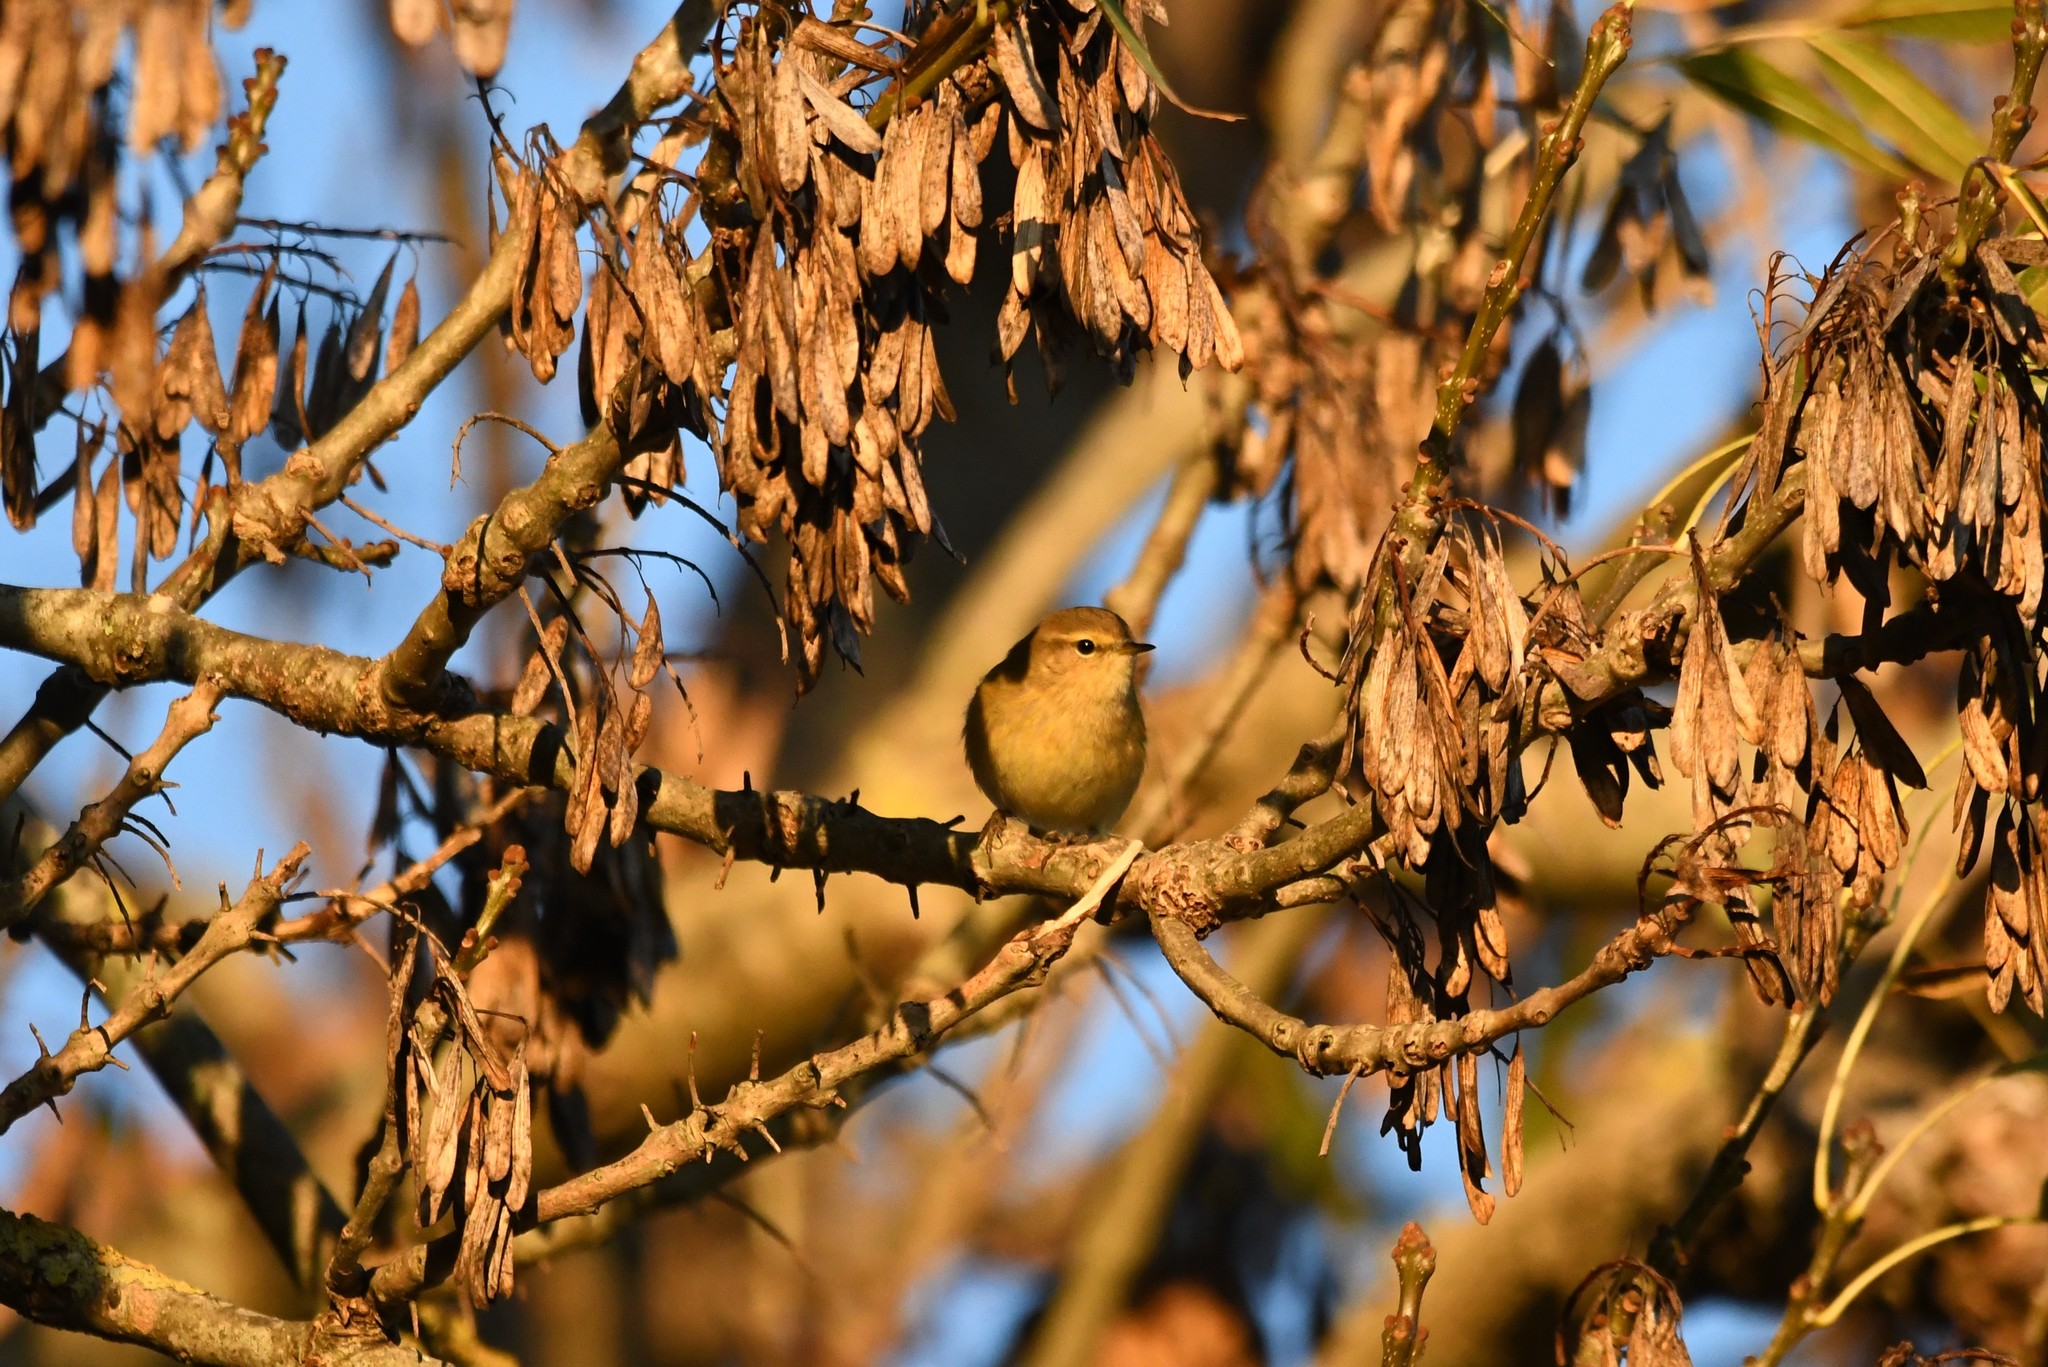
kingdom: Animalia
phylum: Chordata
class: Aves
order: Passeriformes
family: Phylloscopidae
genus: Phylloscopus
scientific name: Phylloscopus collybita
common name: Common chiffchaff
